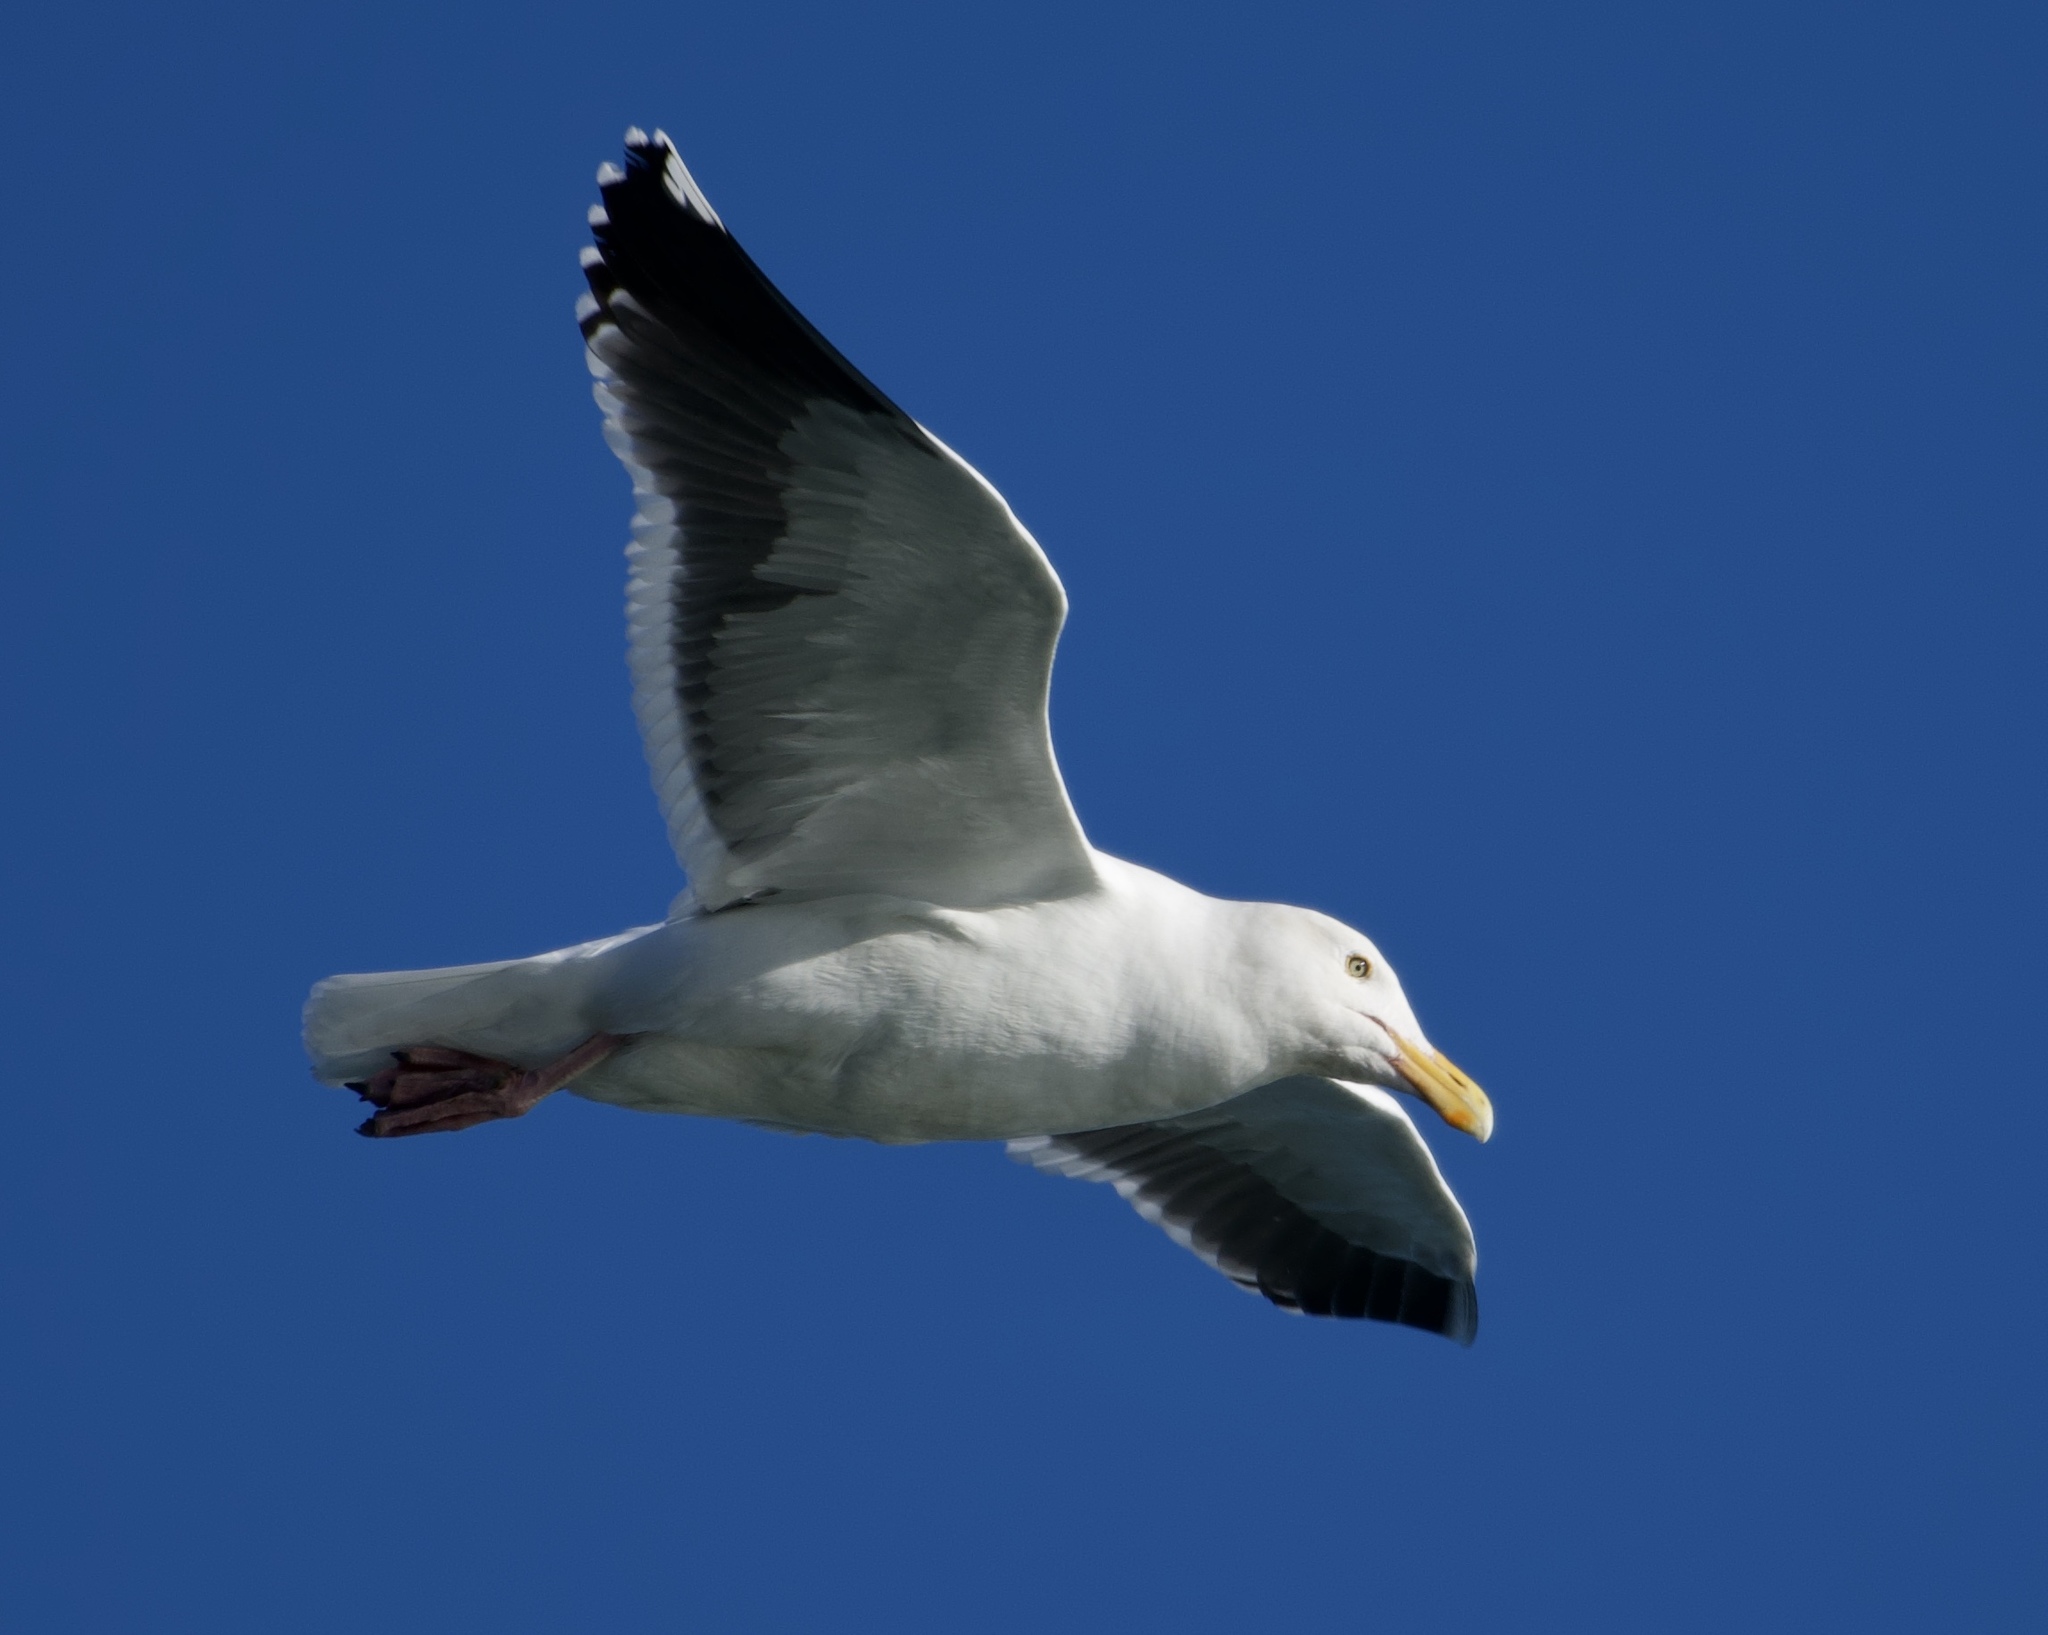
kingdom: Animalia
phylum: Chordata
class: Aves
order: Charadriiformes
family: Laridae
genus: Larus
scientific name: Larus occidentalis
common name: Western gull
